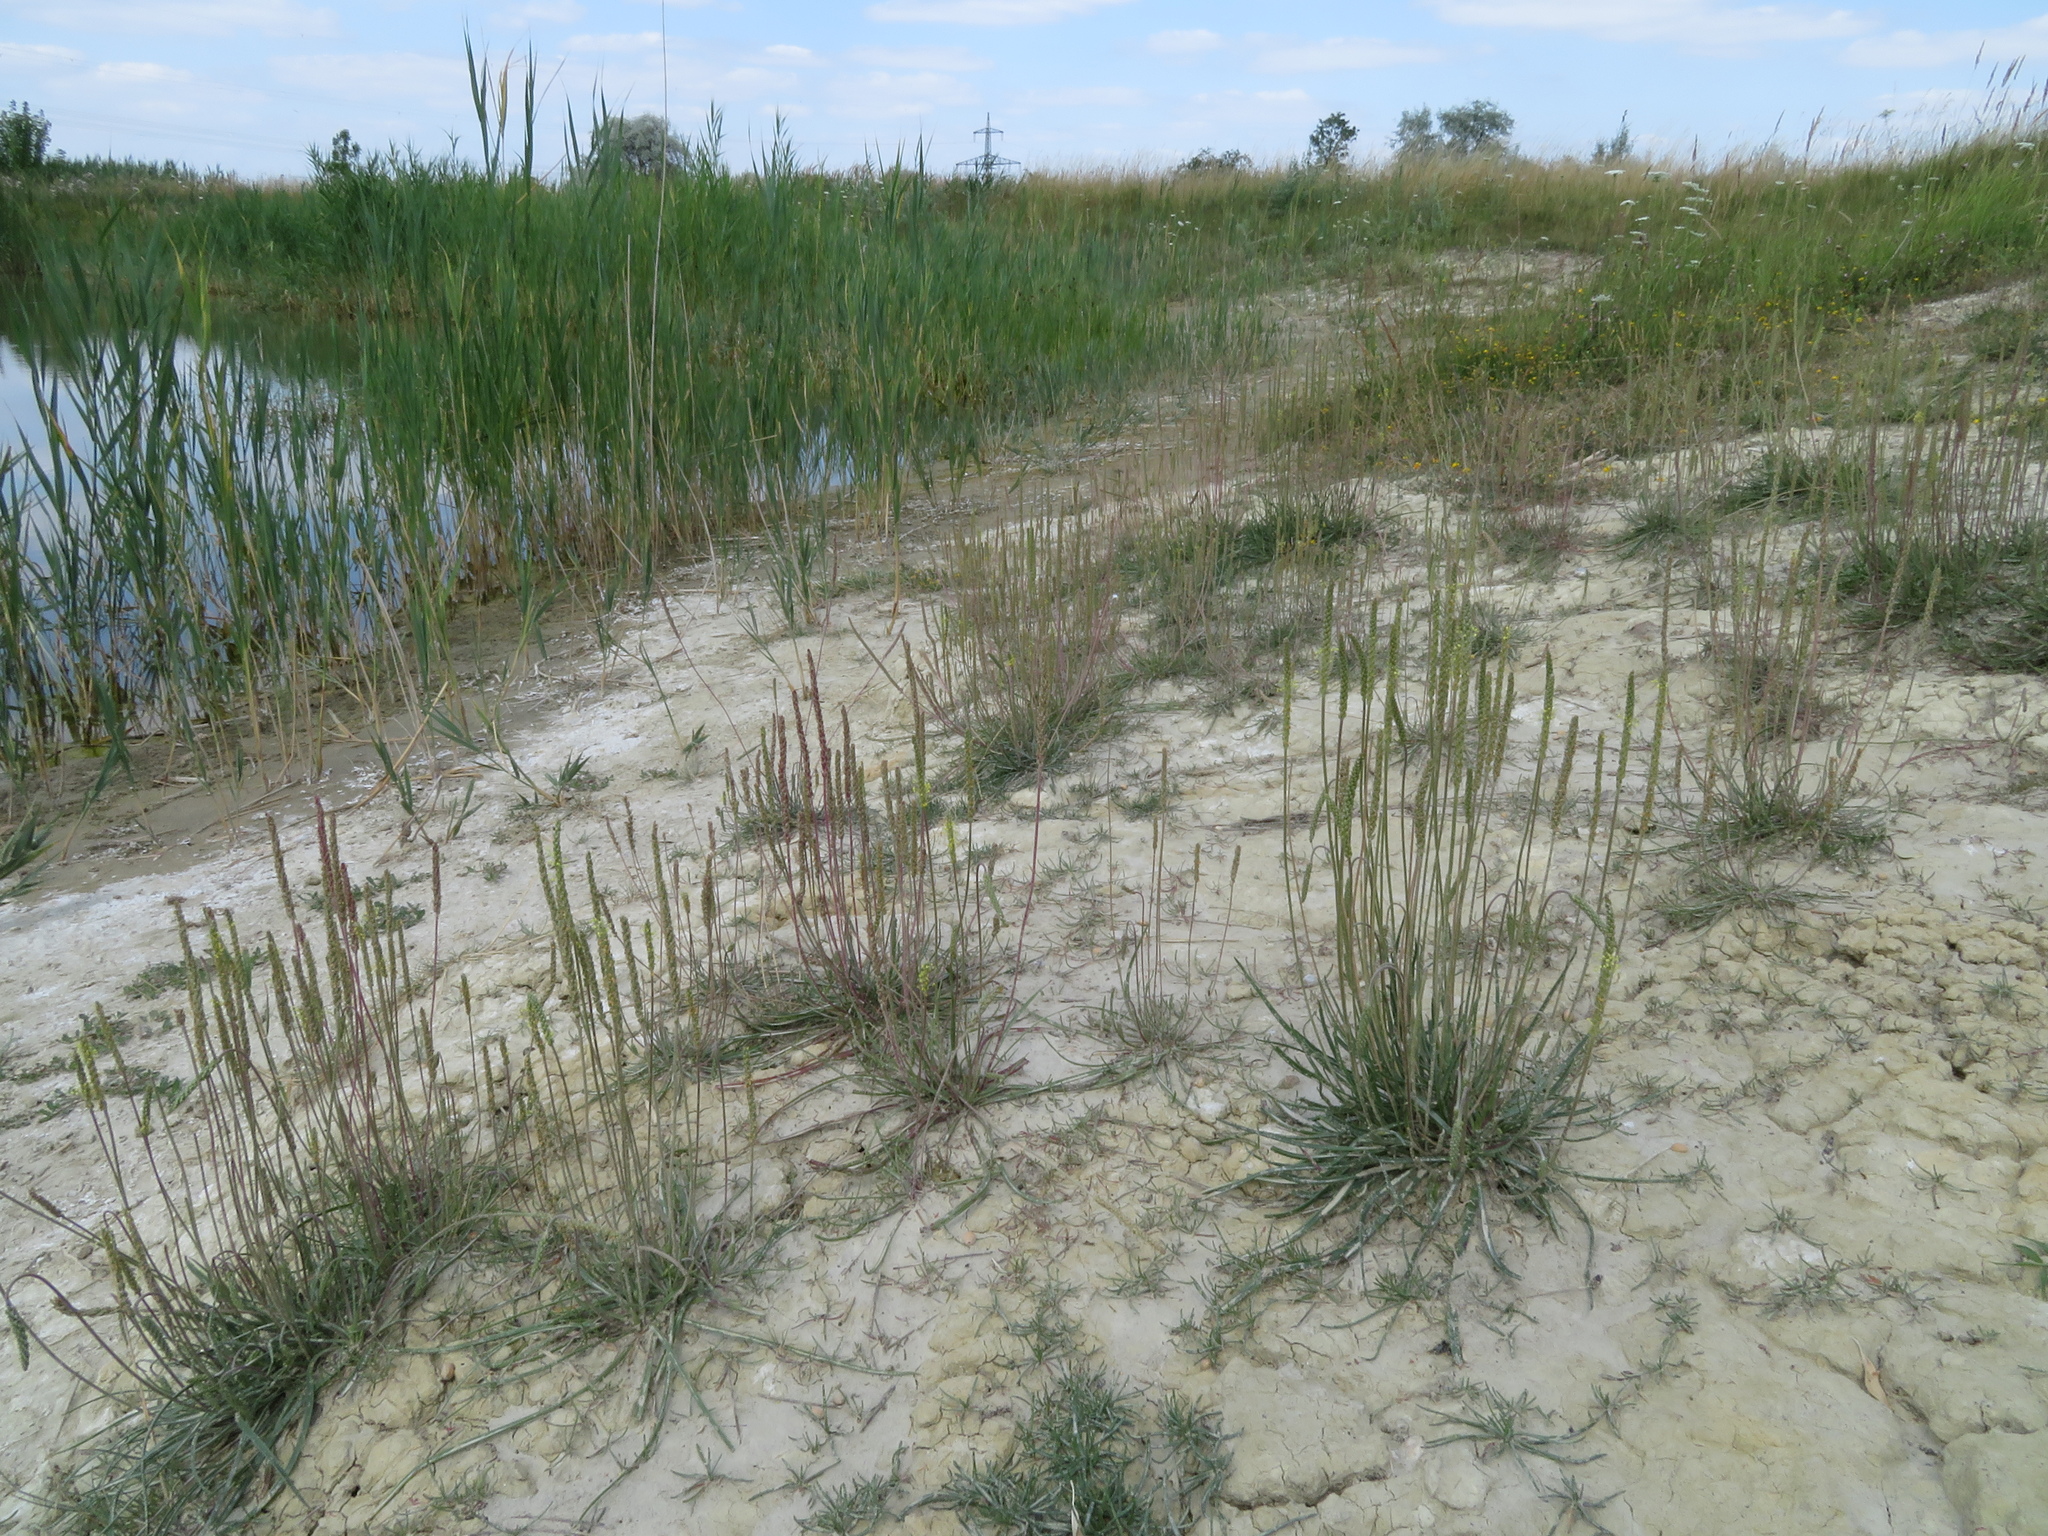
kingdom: Plantae
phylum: Tracheophyta
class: Magnoliopsida
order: Lamiales
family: Plantaginaceae
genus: Plantago
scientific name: Plantago maritima
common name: Sea plantain
